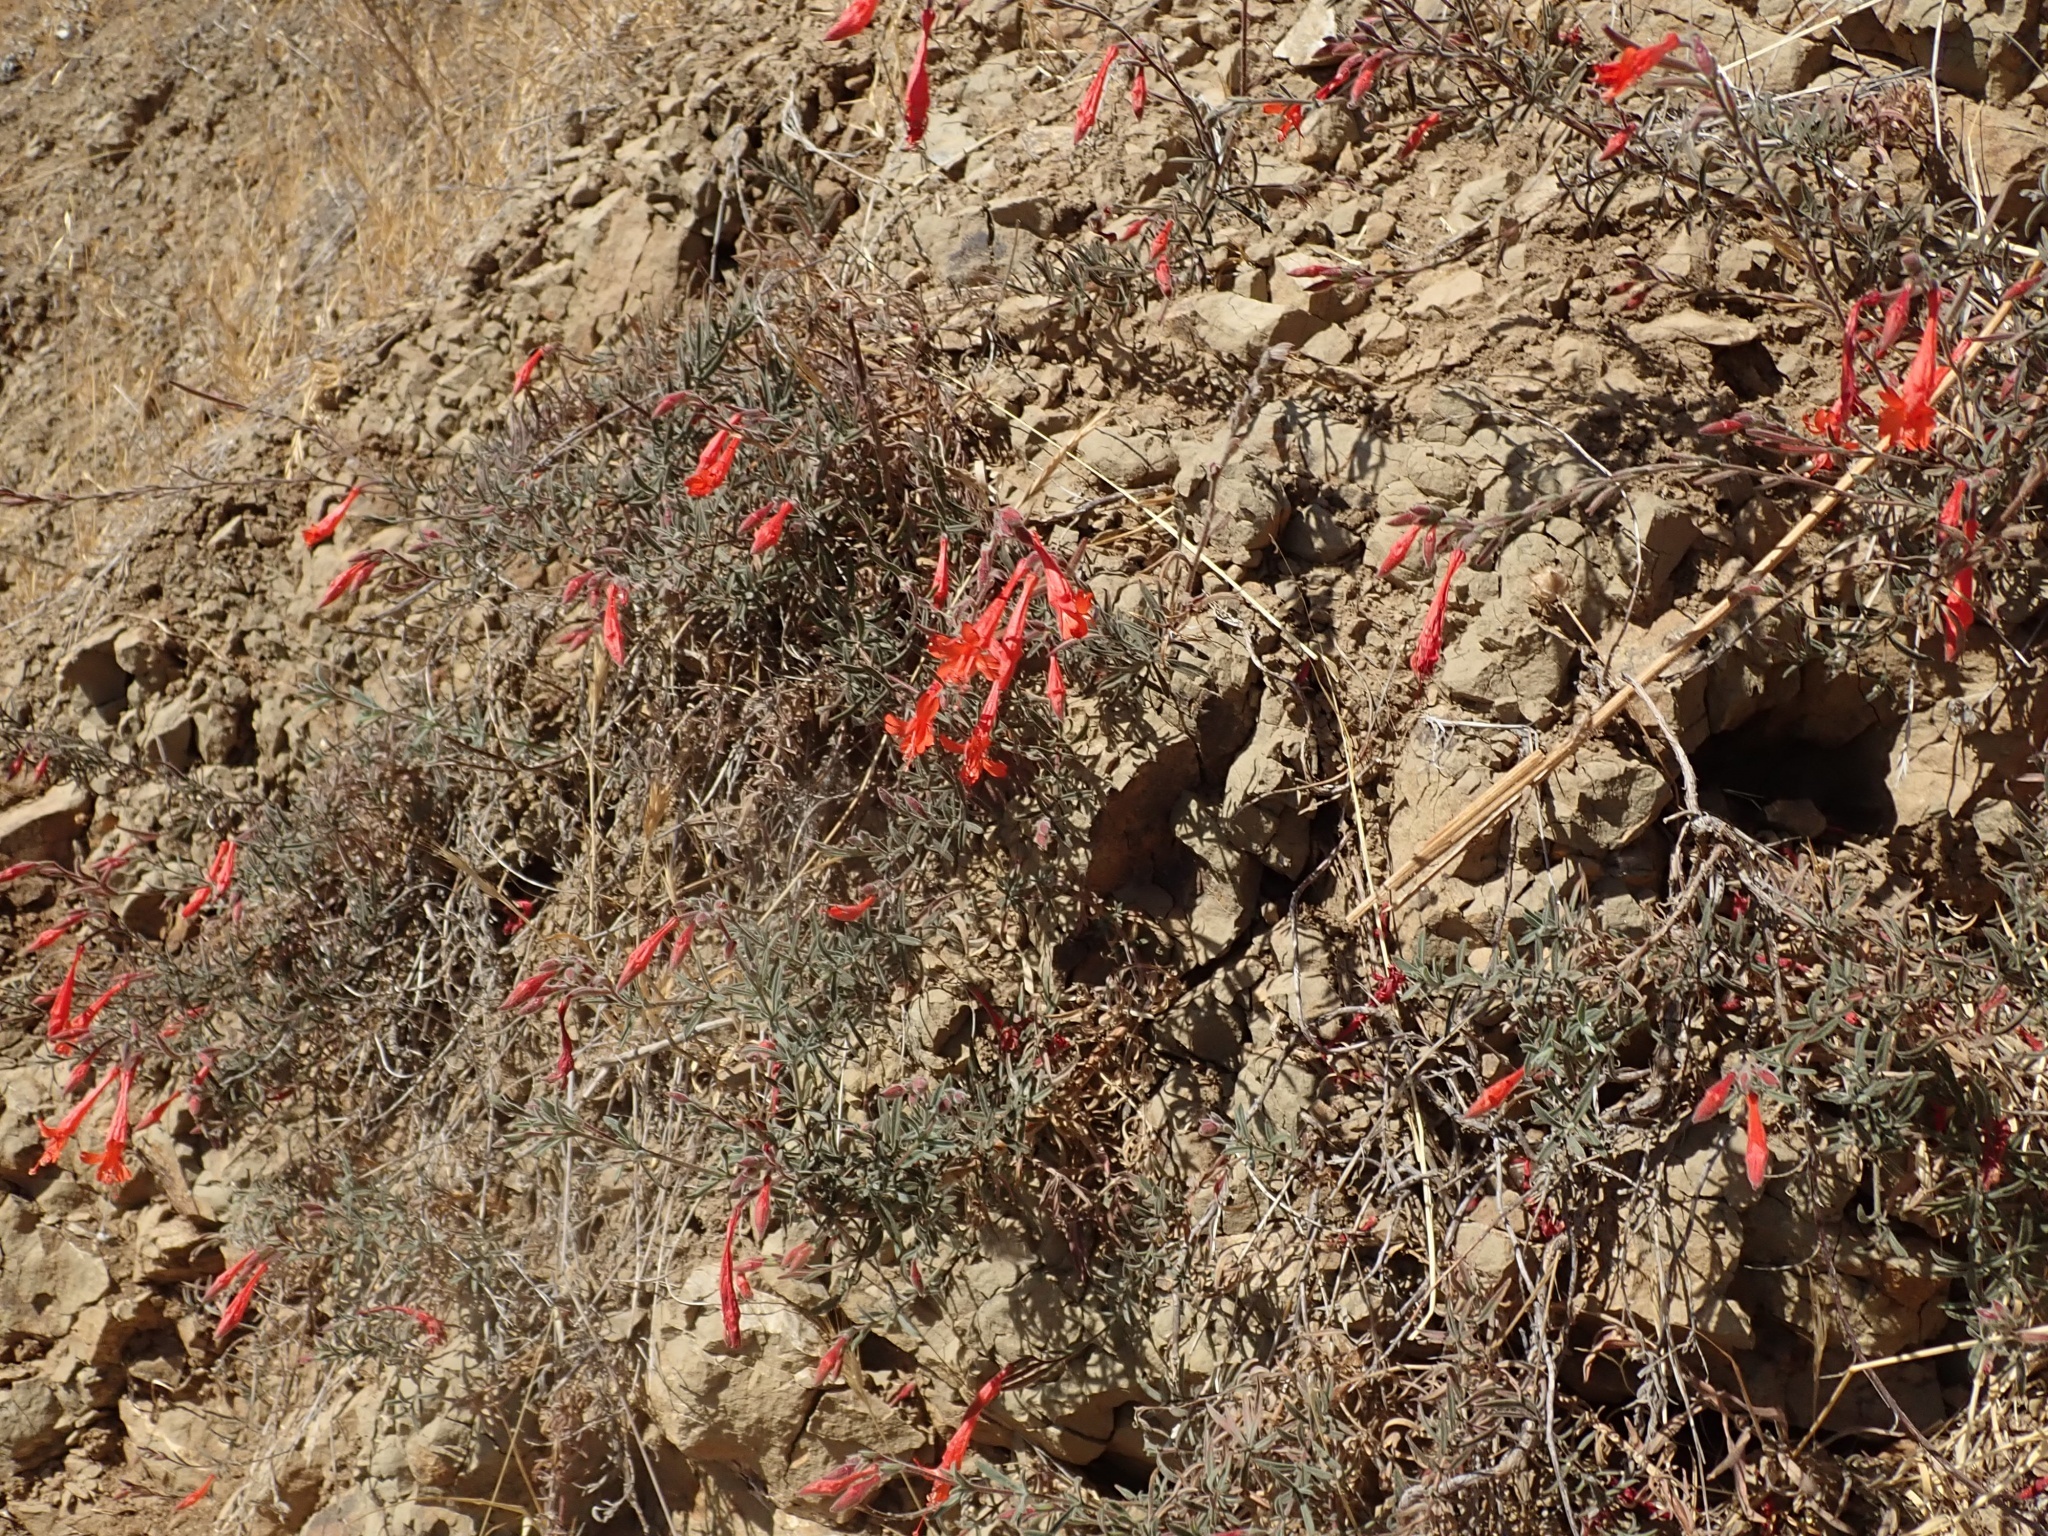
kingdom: Plantae
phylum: Tracheophyta
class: Magnoliopsida
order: Myrtales
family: Onagraceae
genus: Epilobium
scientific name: Epilobium canum
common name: California-fuchsia
